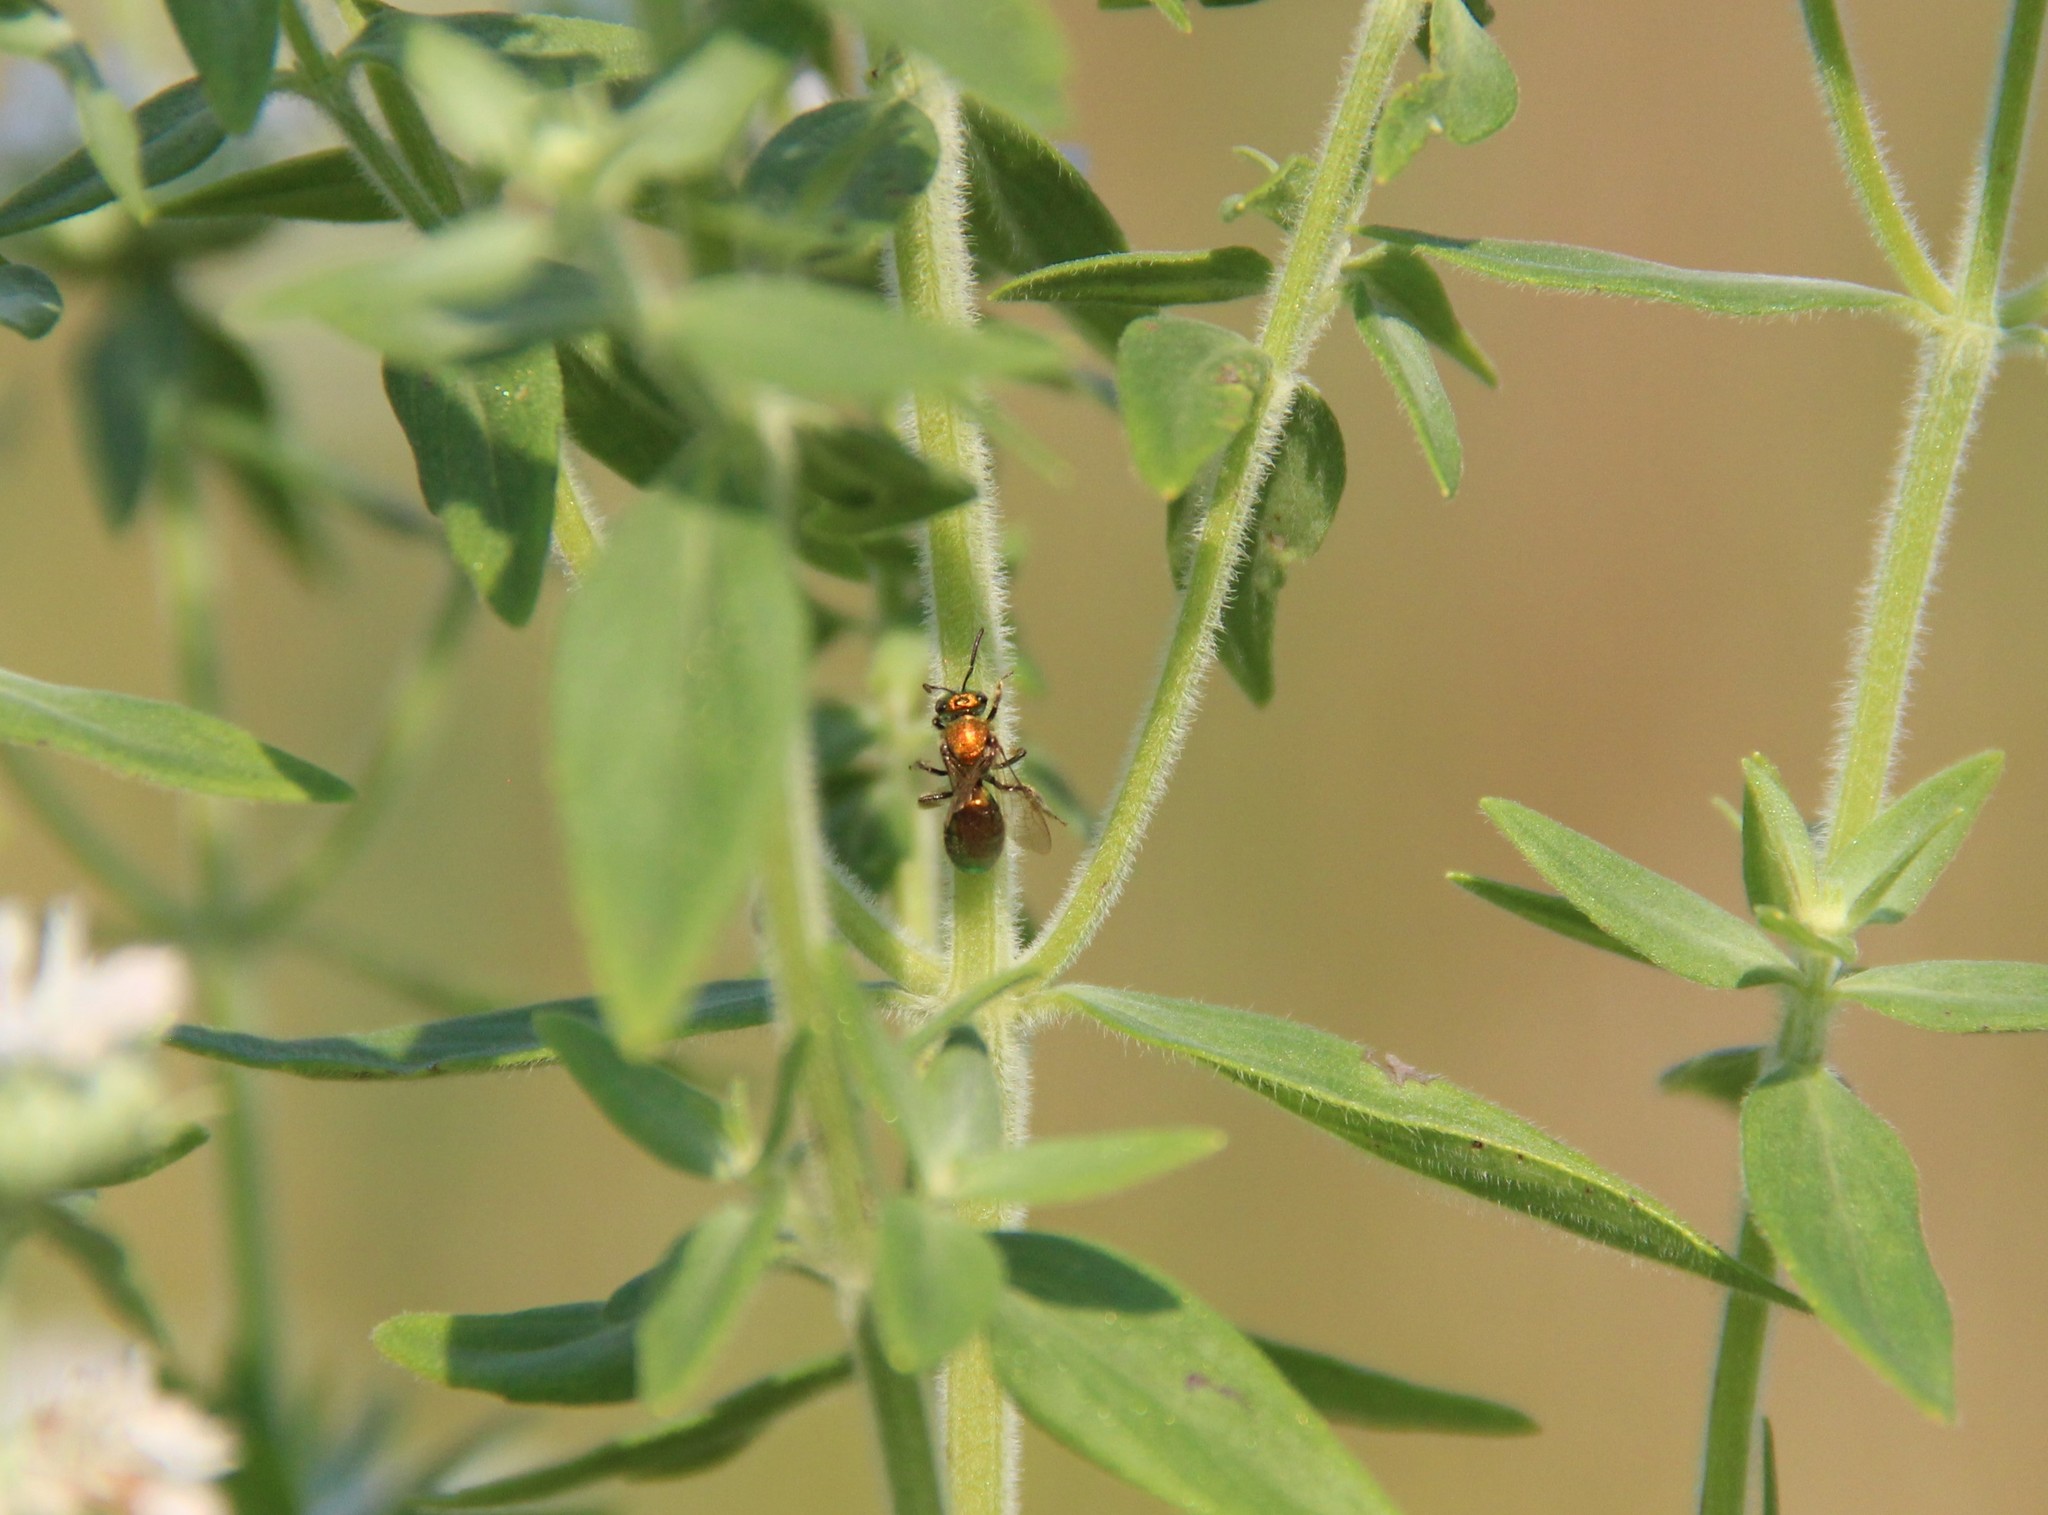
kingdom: Animalia
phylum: Arthropoda
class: Insecta
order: Hymenoptera
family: Halictidae
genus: Augochlorella
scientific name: Augochlorella aurata
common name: Golden sweat bee
